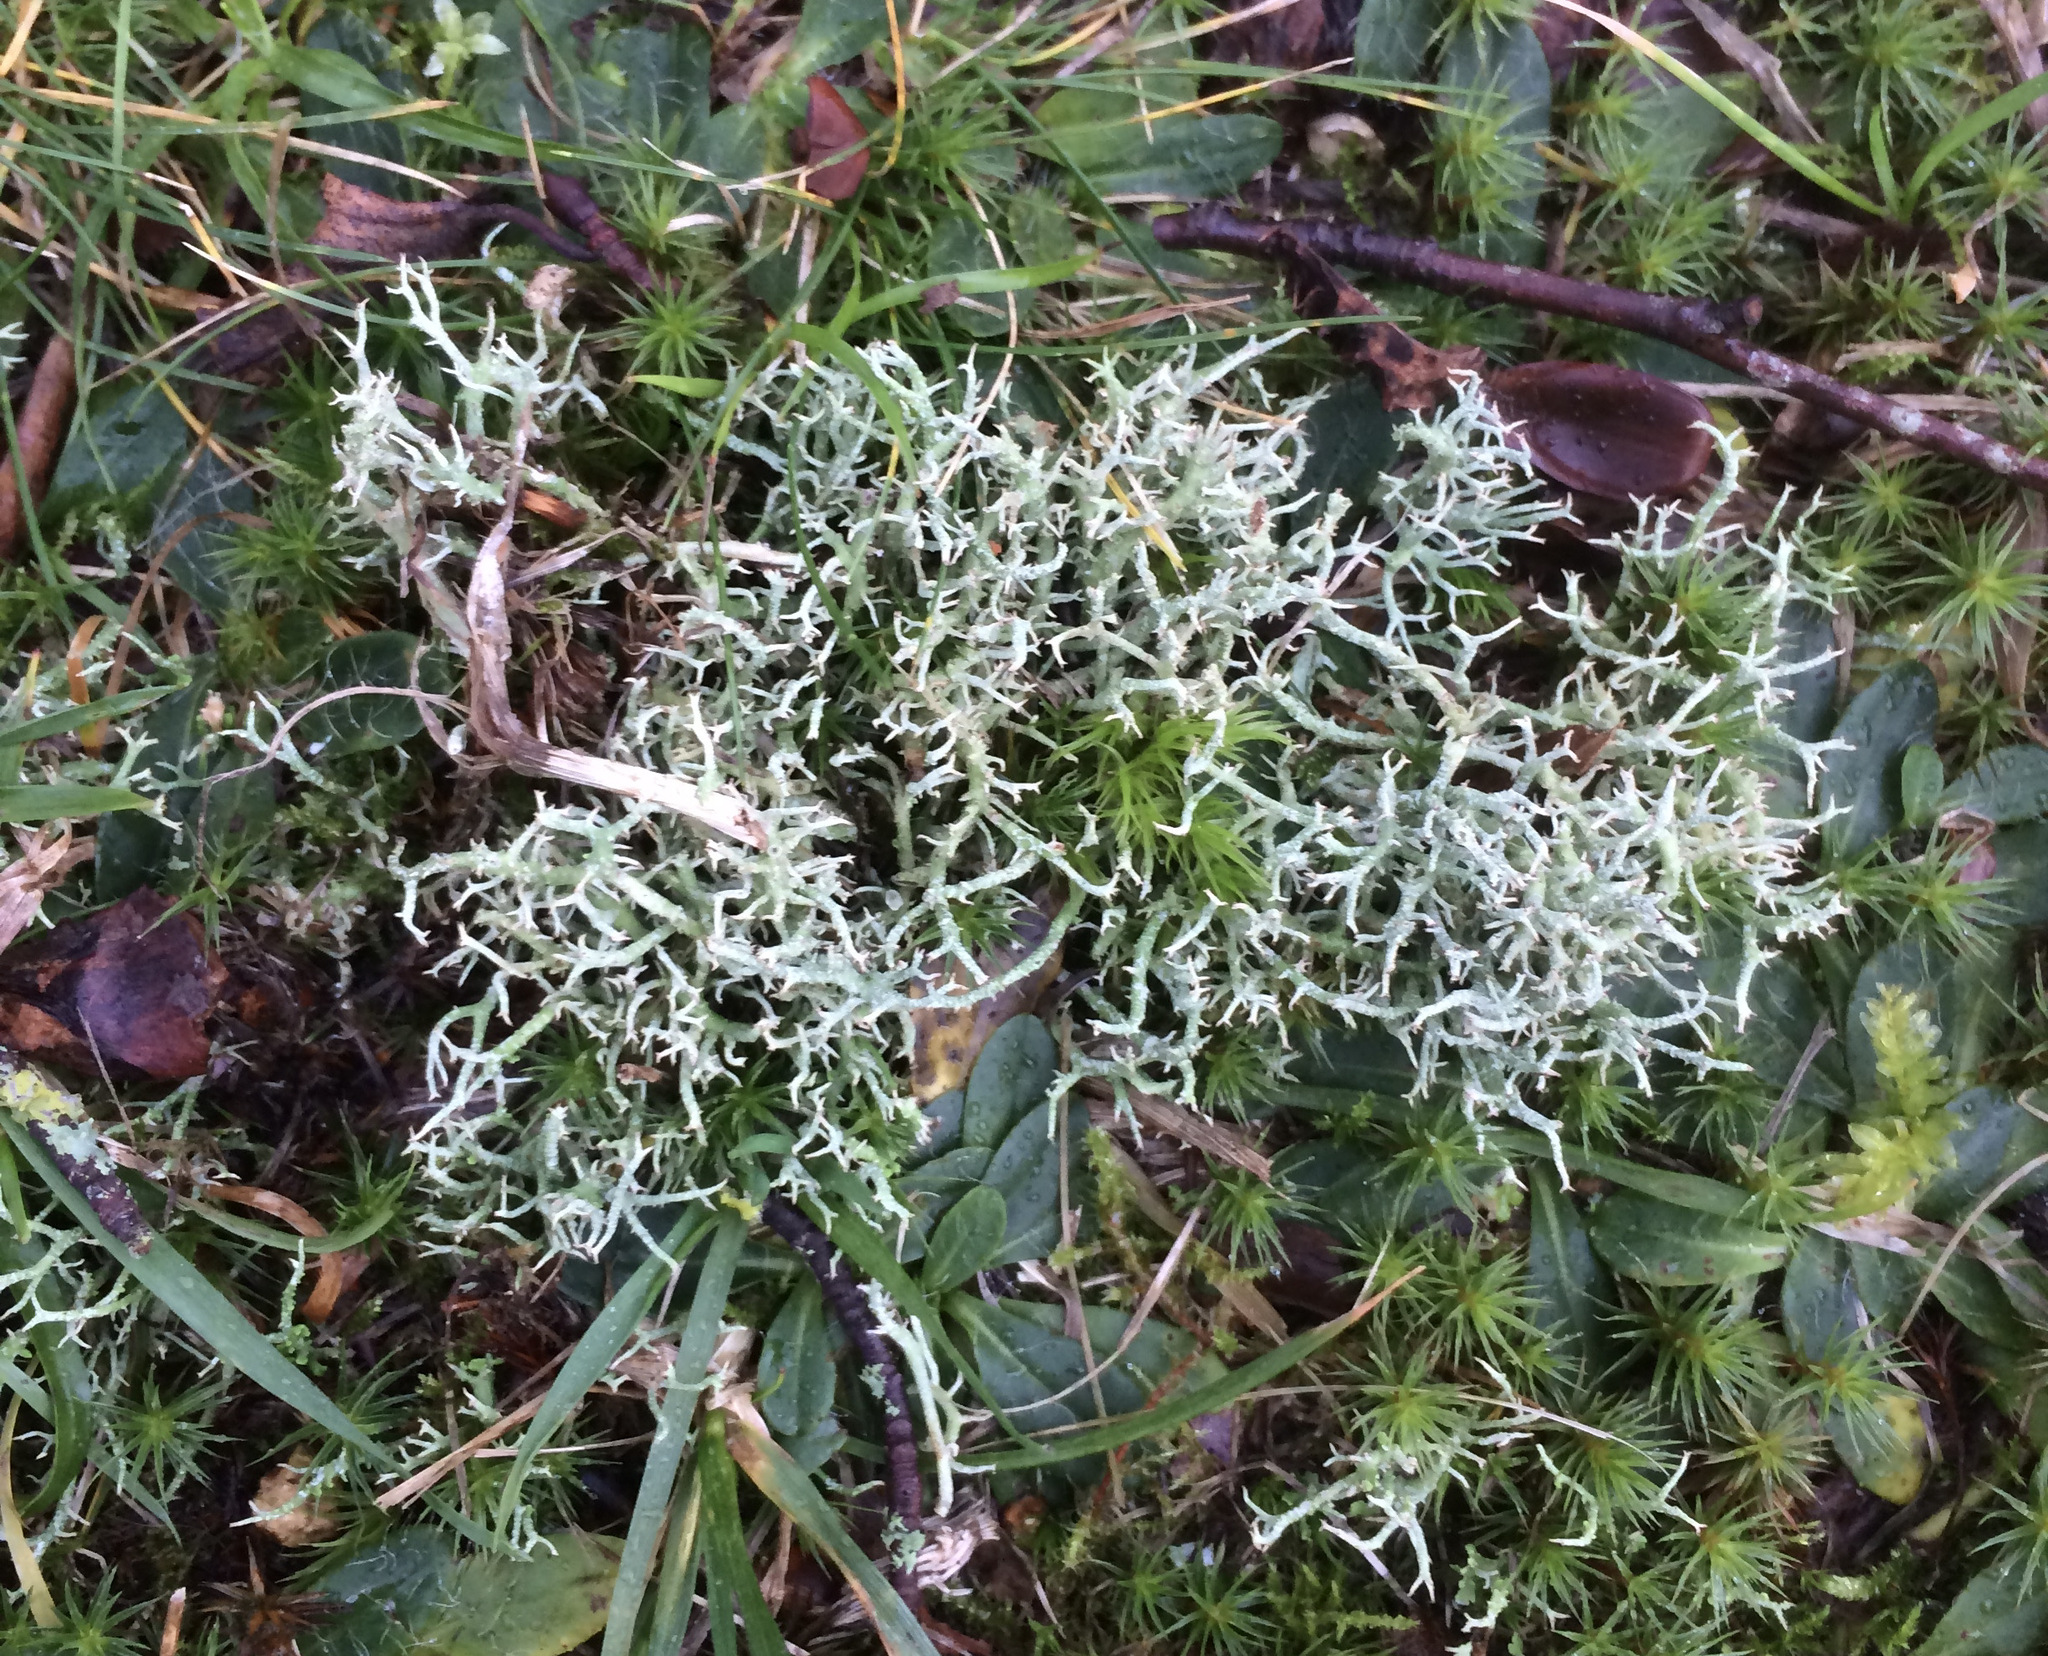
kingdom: Fungi
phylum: Ascomycota
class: Lecanoromycetes
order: Lecanorales
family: Cladoniaceae
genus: Cladonia
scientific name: Cladonia furcata
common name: Many-forked cladonia
